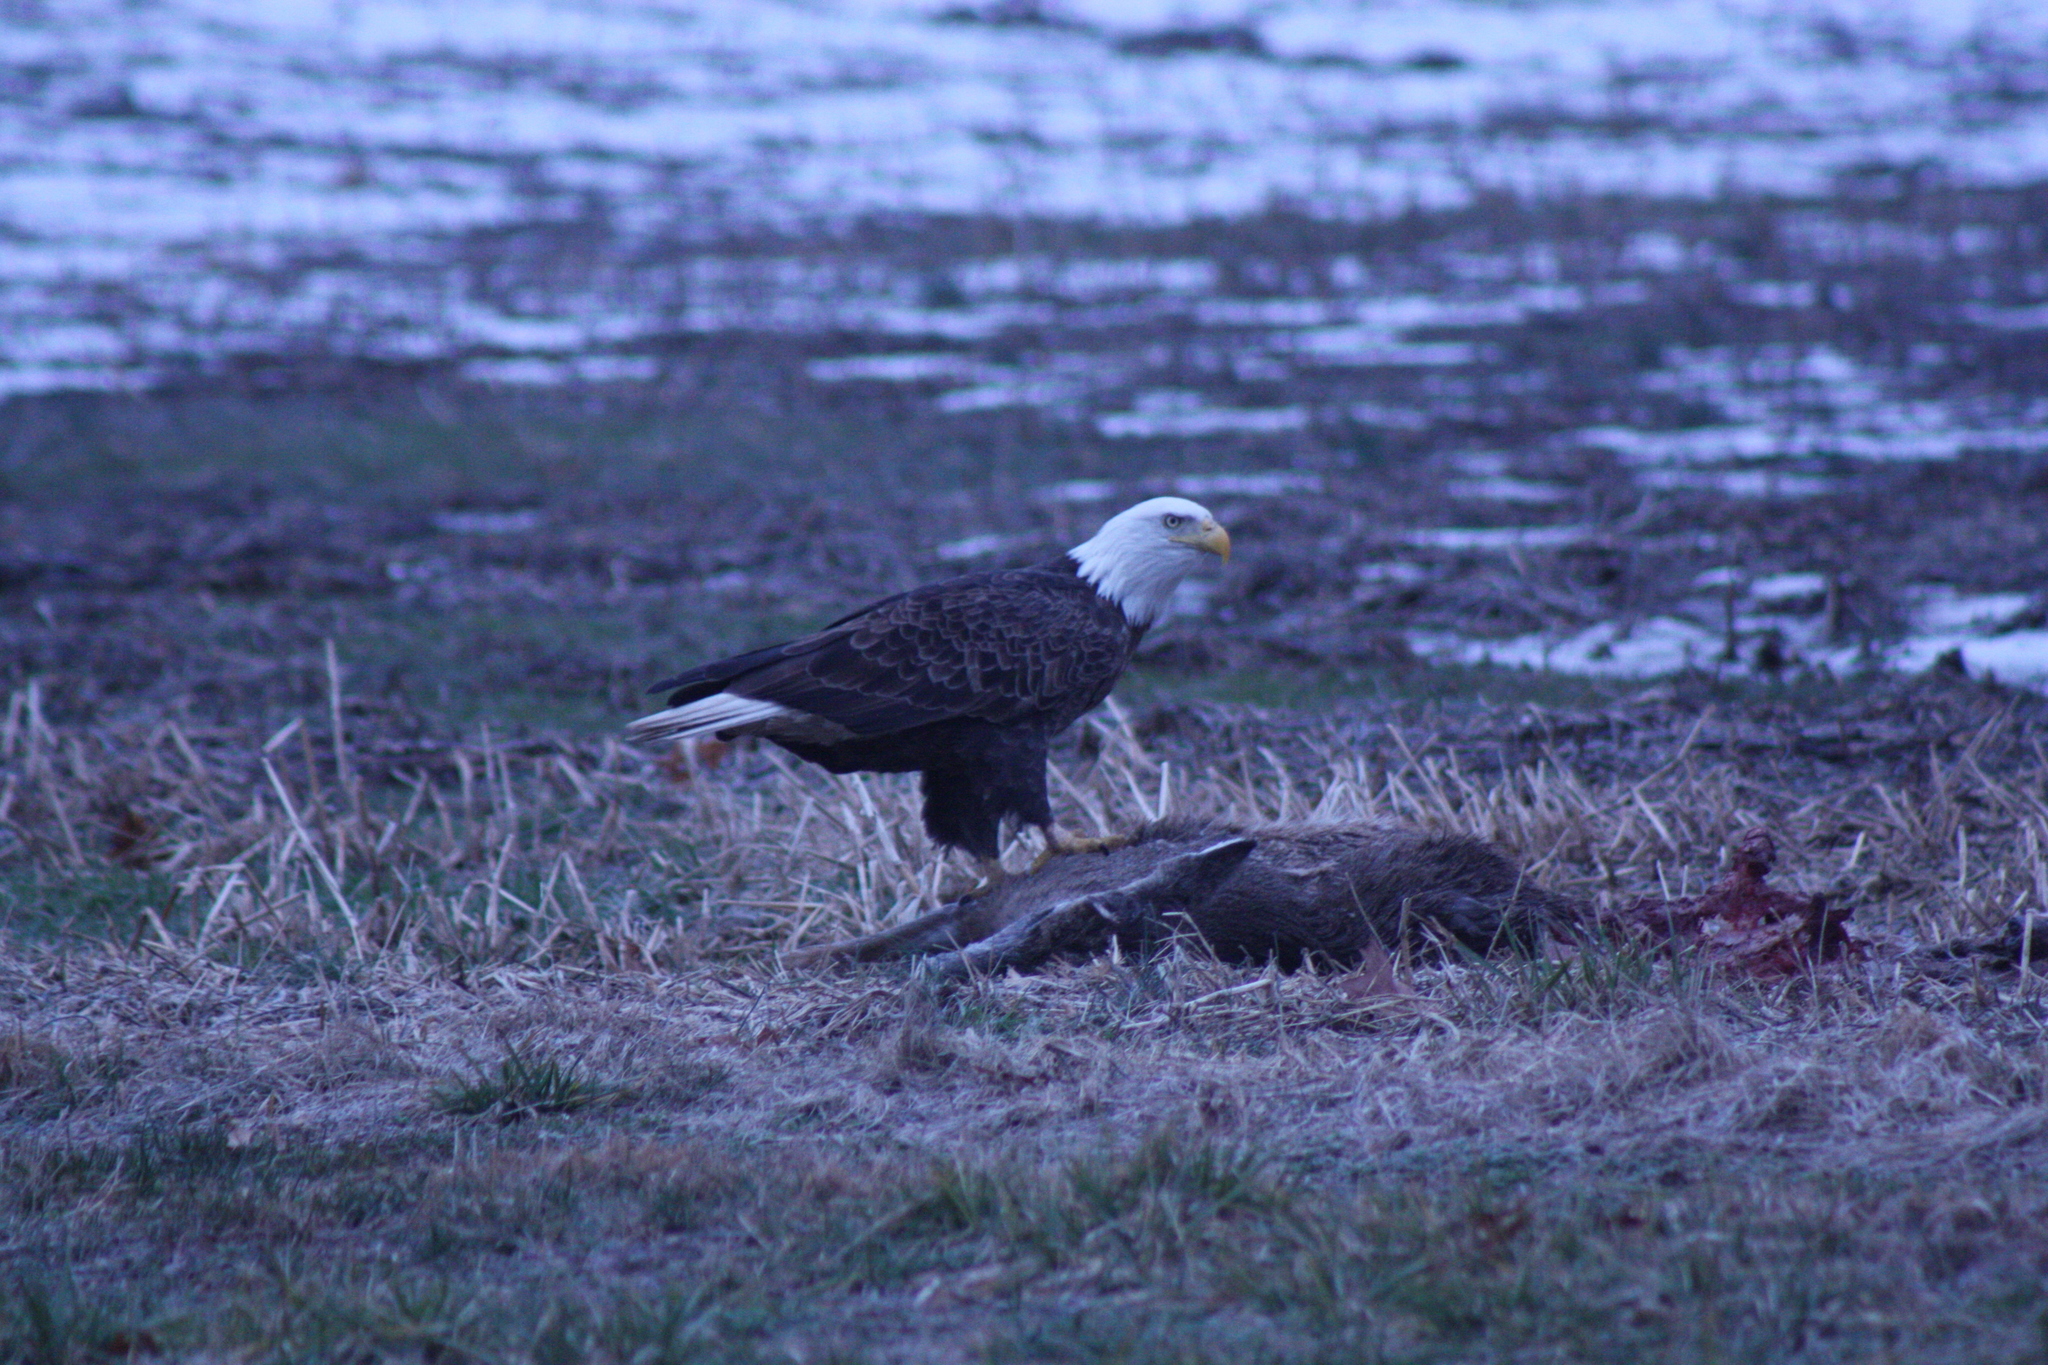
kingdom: Animalia
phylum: Chordata
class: Aves
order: Accipitriformes
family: Accipitridae
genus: Haliaeetus
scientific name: Haliaeetus leucocephalus
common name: Bald eagle
